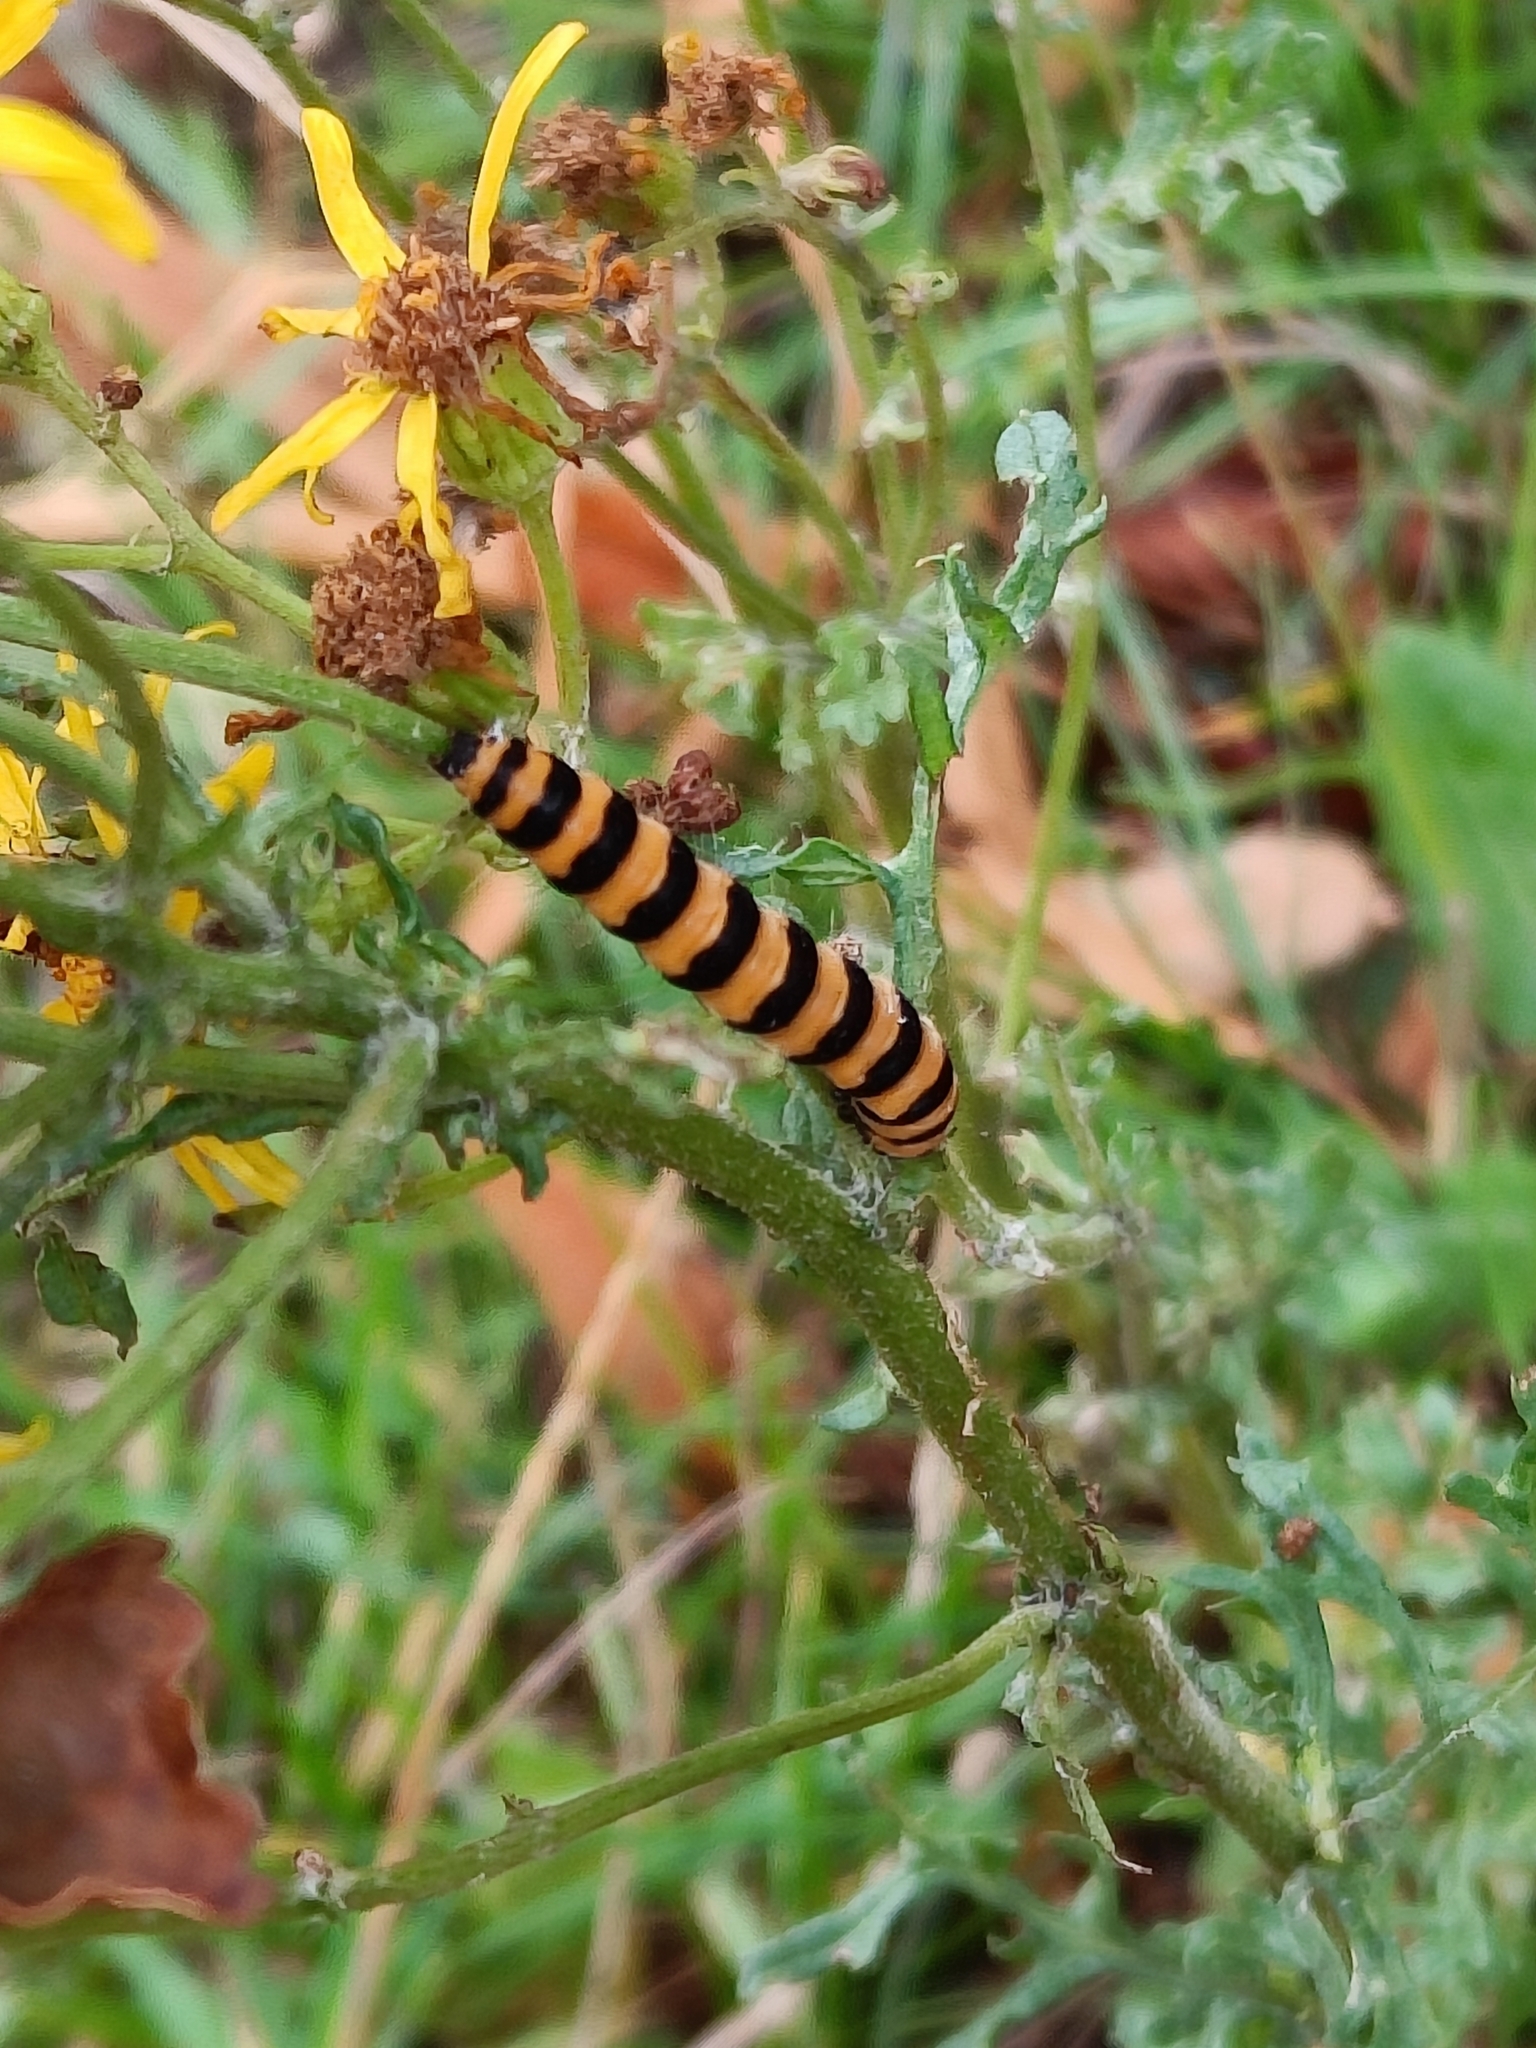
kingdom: Animalia
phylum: Arthropoda
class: Insecta
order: Lepidoptera
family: Erebidae
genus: Tyria
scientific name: Tyria jacobaeae
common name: Cinnabar
